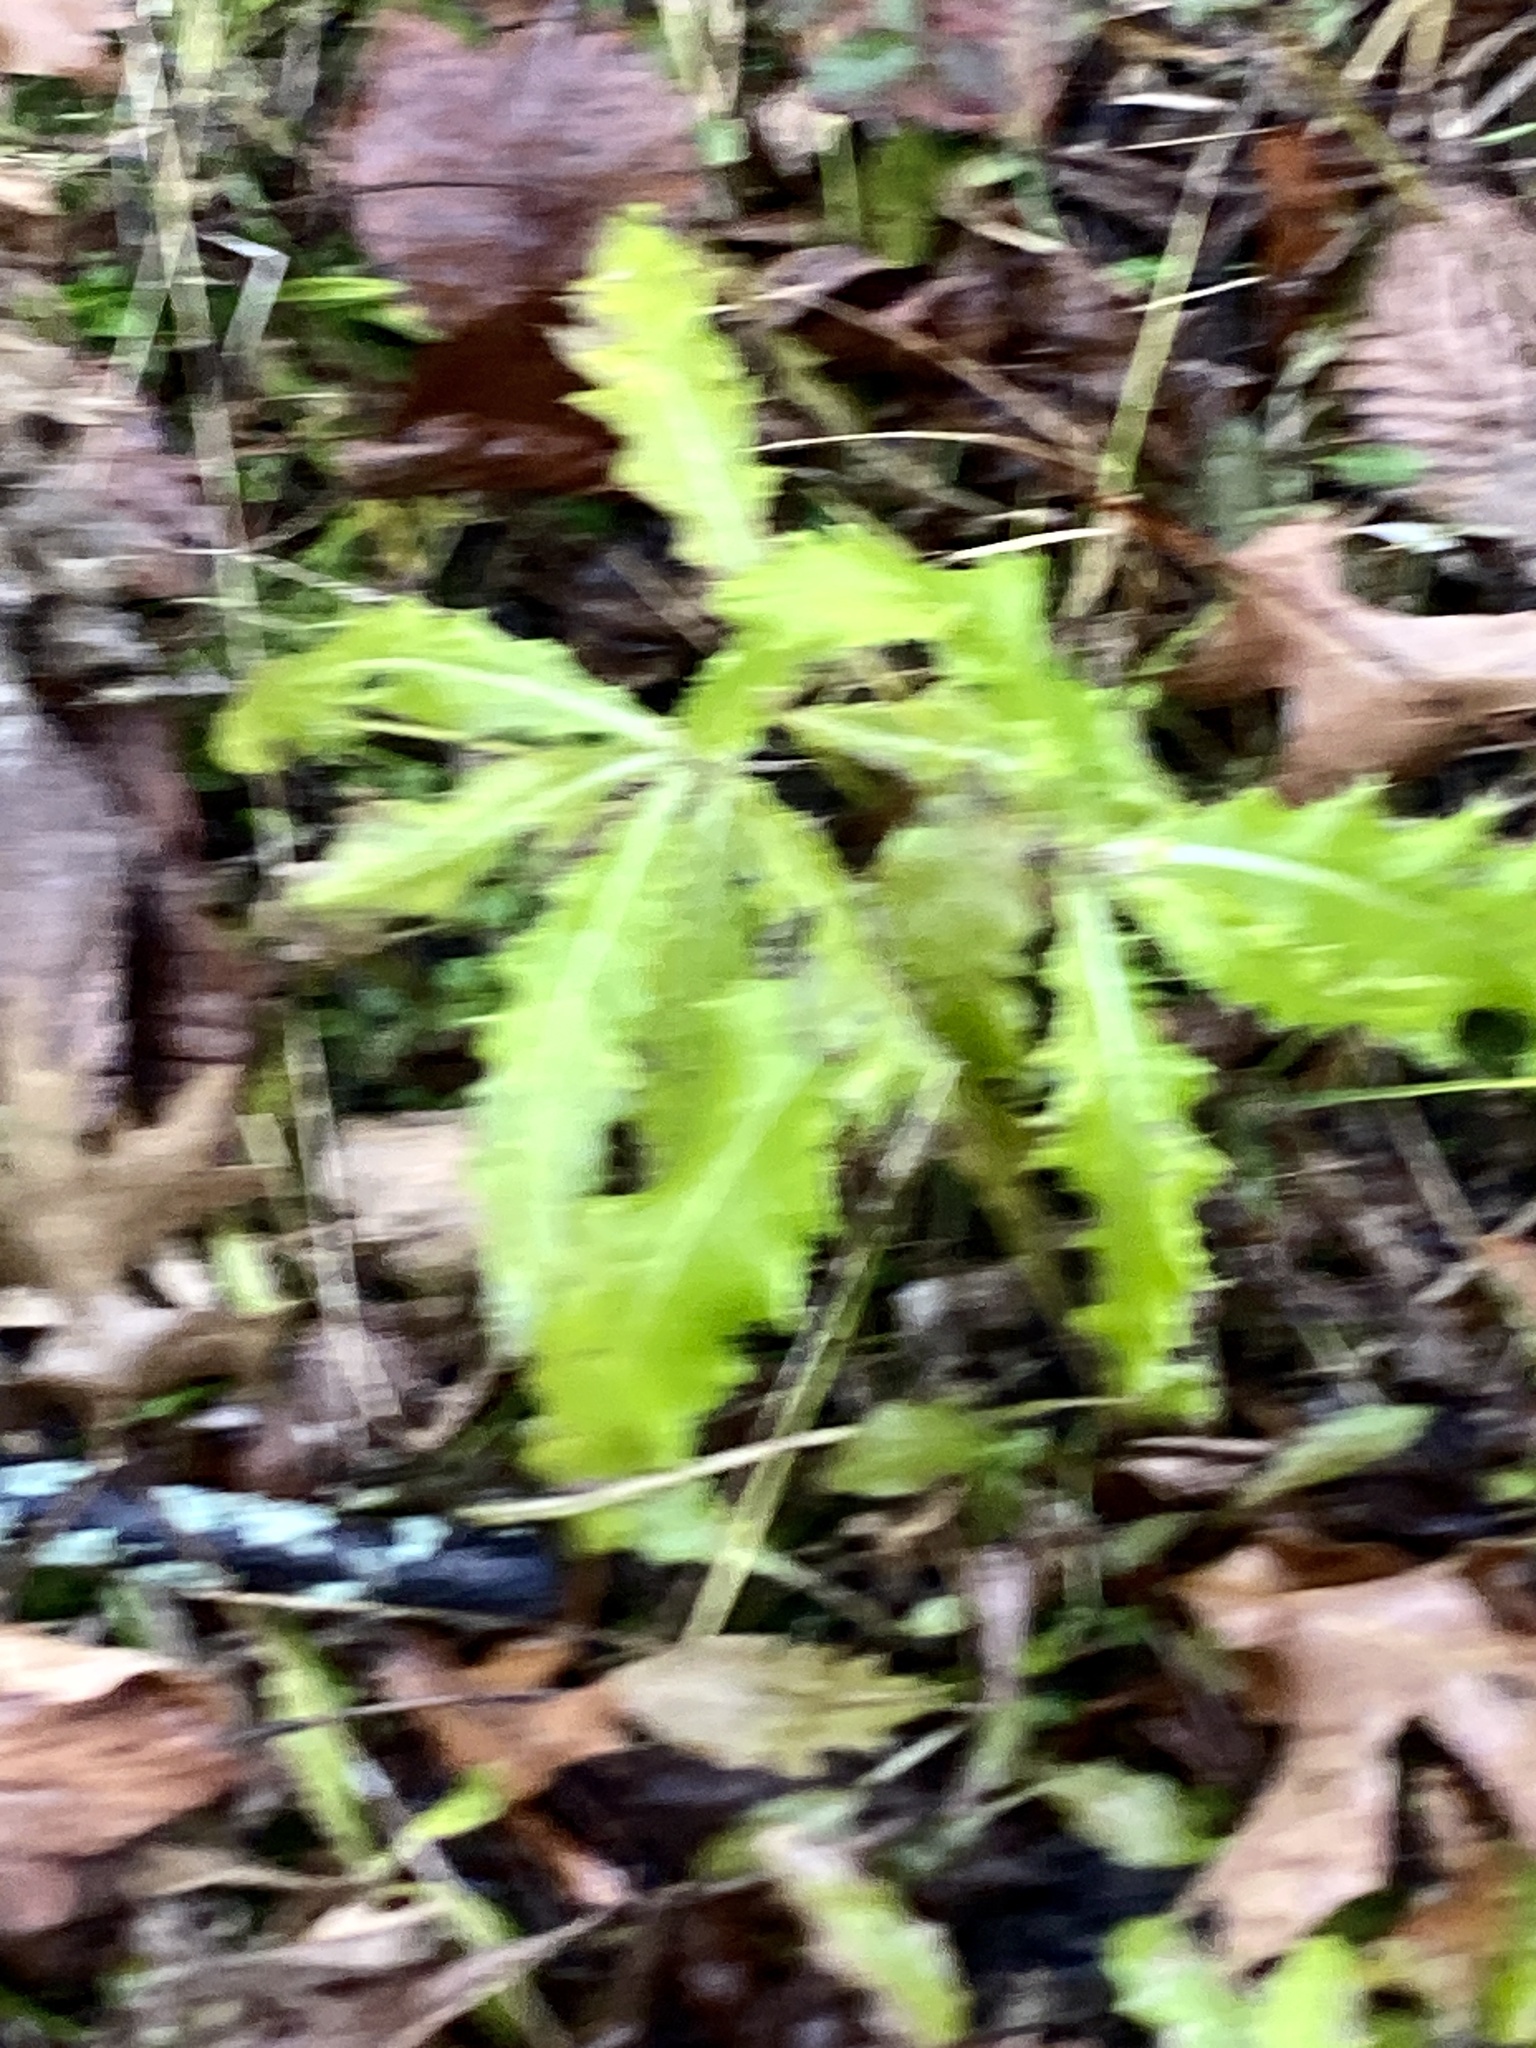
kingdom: Plantae
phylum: Tracheophyta
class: Magnoliopsida
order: Asterales
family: Asteraceae
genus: Cirsium
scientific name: Cirsium arvense
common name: Creeping thistle
